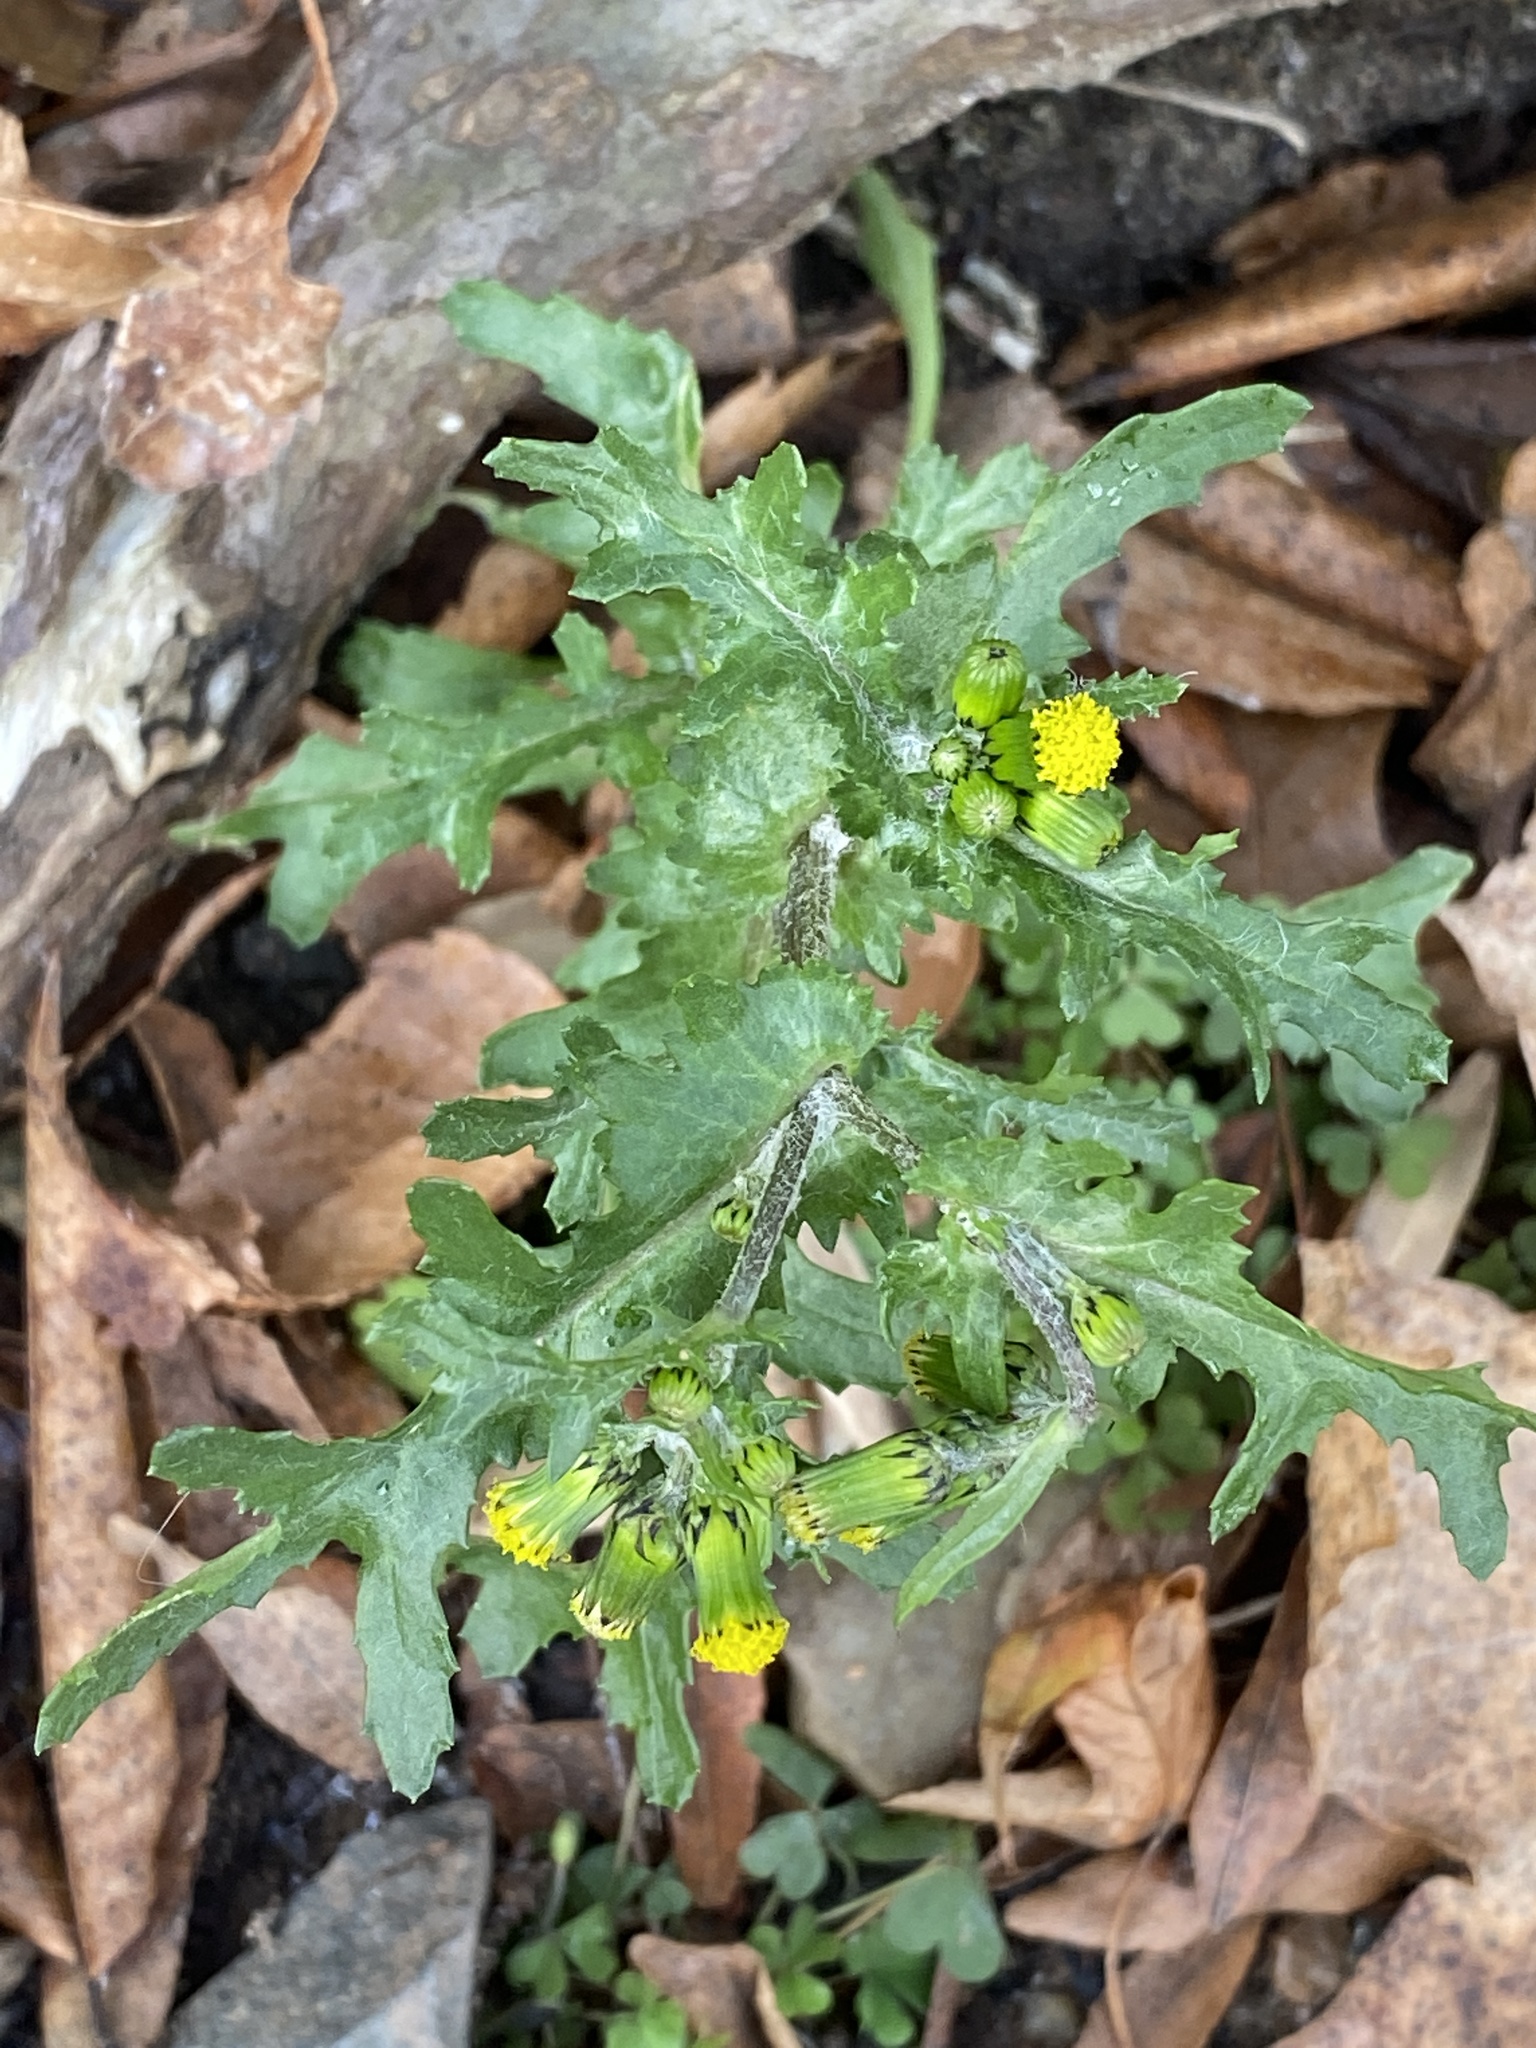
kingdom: Plantae
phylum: Tracheophyta
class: Magnoliopsida
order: Asterales
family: Asteraceae
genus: Senecio
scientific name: Senecio vulgaris
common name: Old-man-in-the-spring
